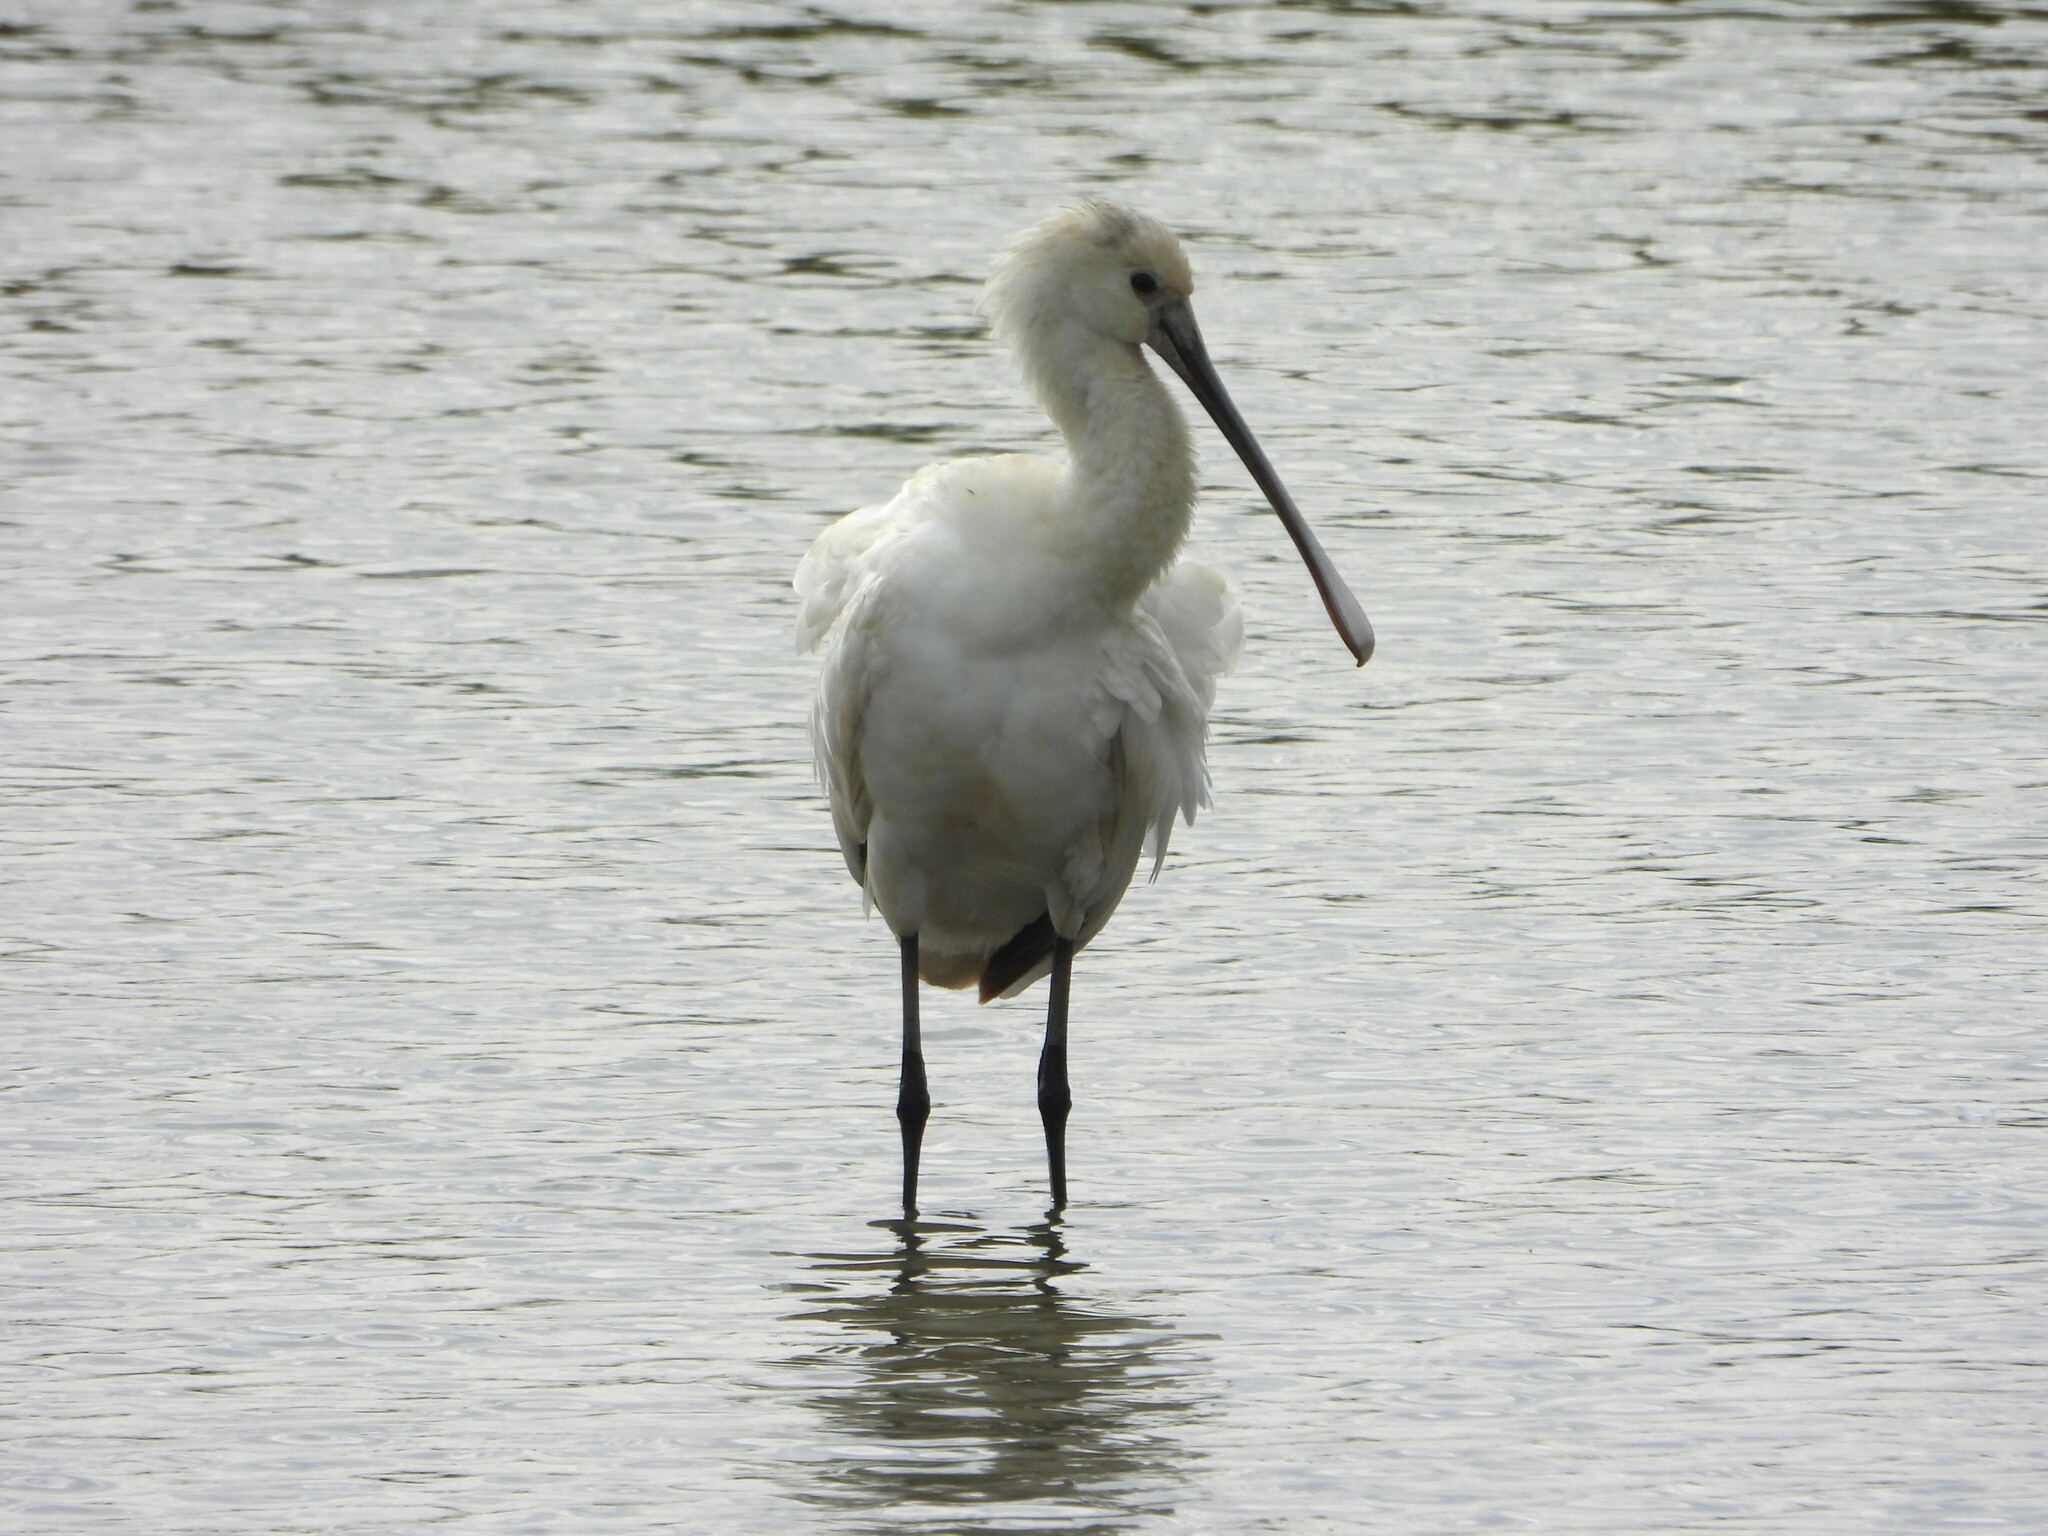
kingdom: Animalia
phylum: Chordata
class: Aves
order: Pelecaniformes
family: Threskiornithidae
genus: Platalea
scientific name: Platalea leucorodia
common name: Eurasian spoonbill
